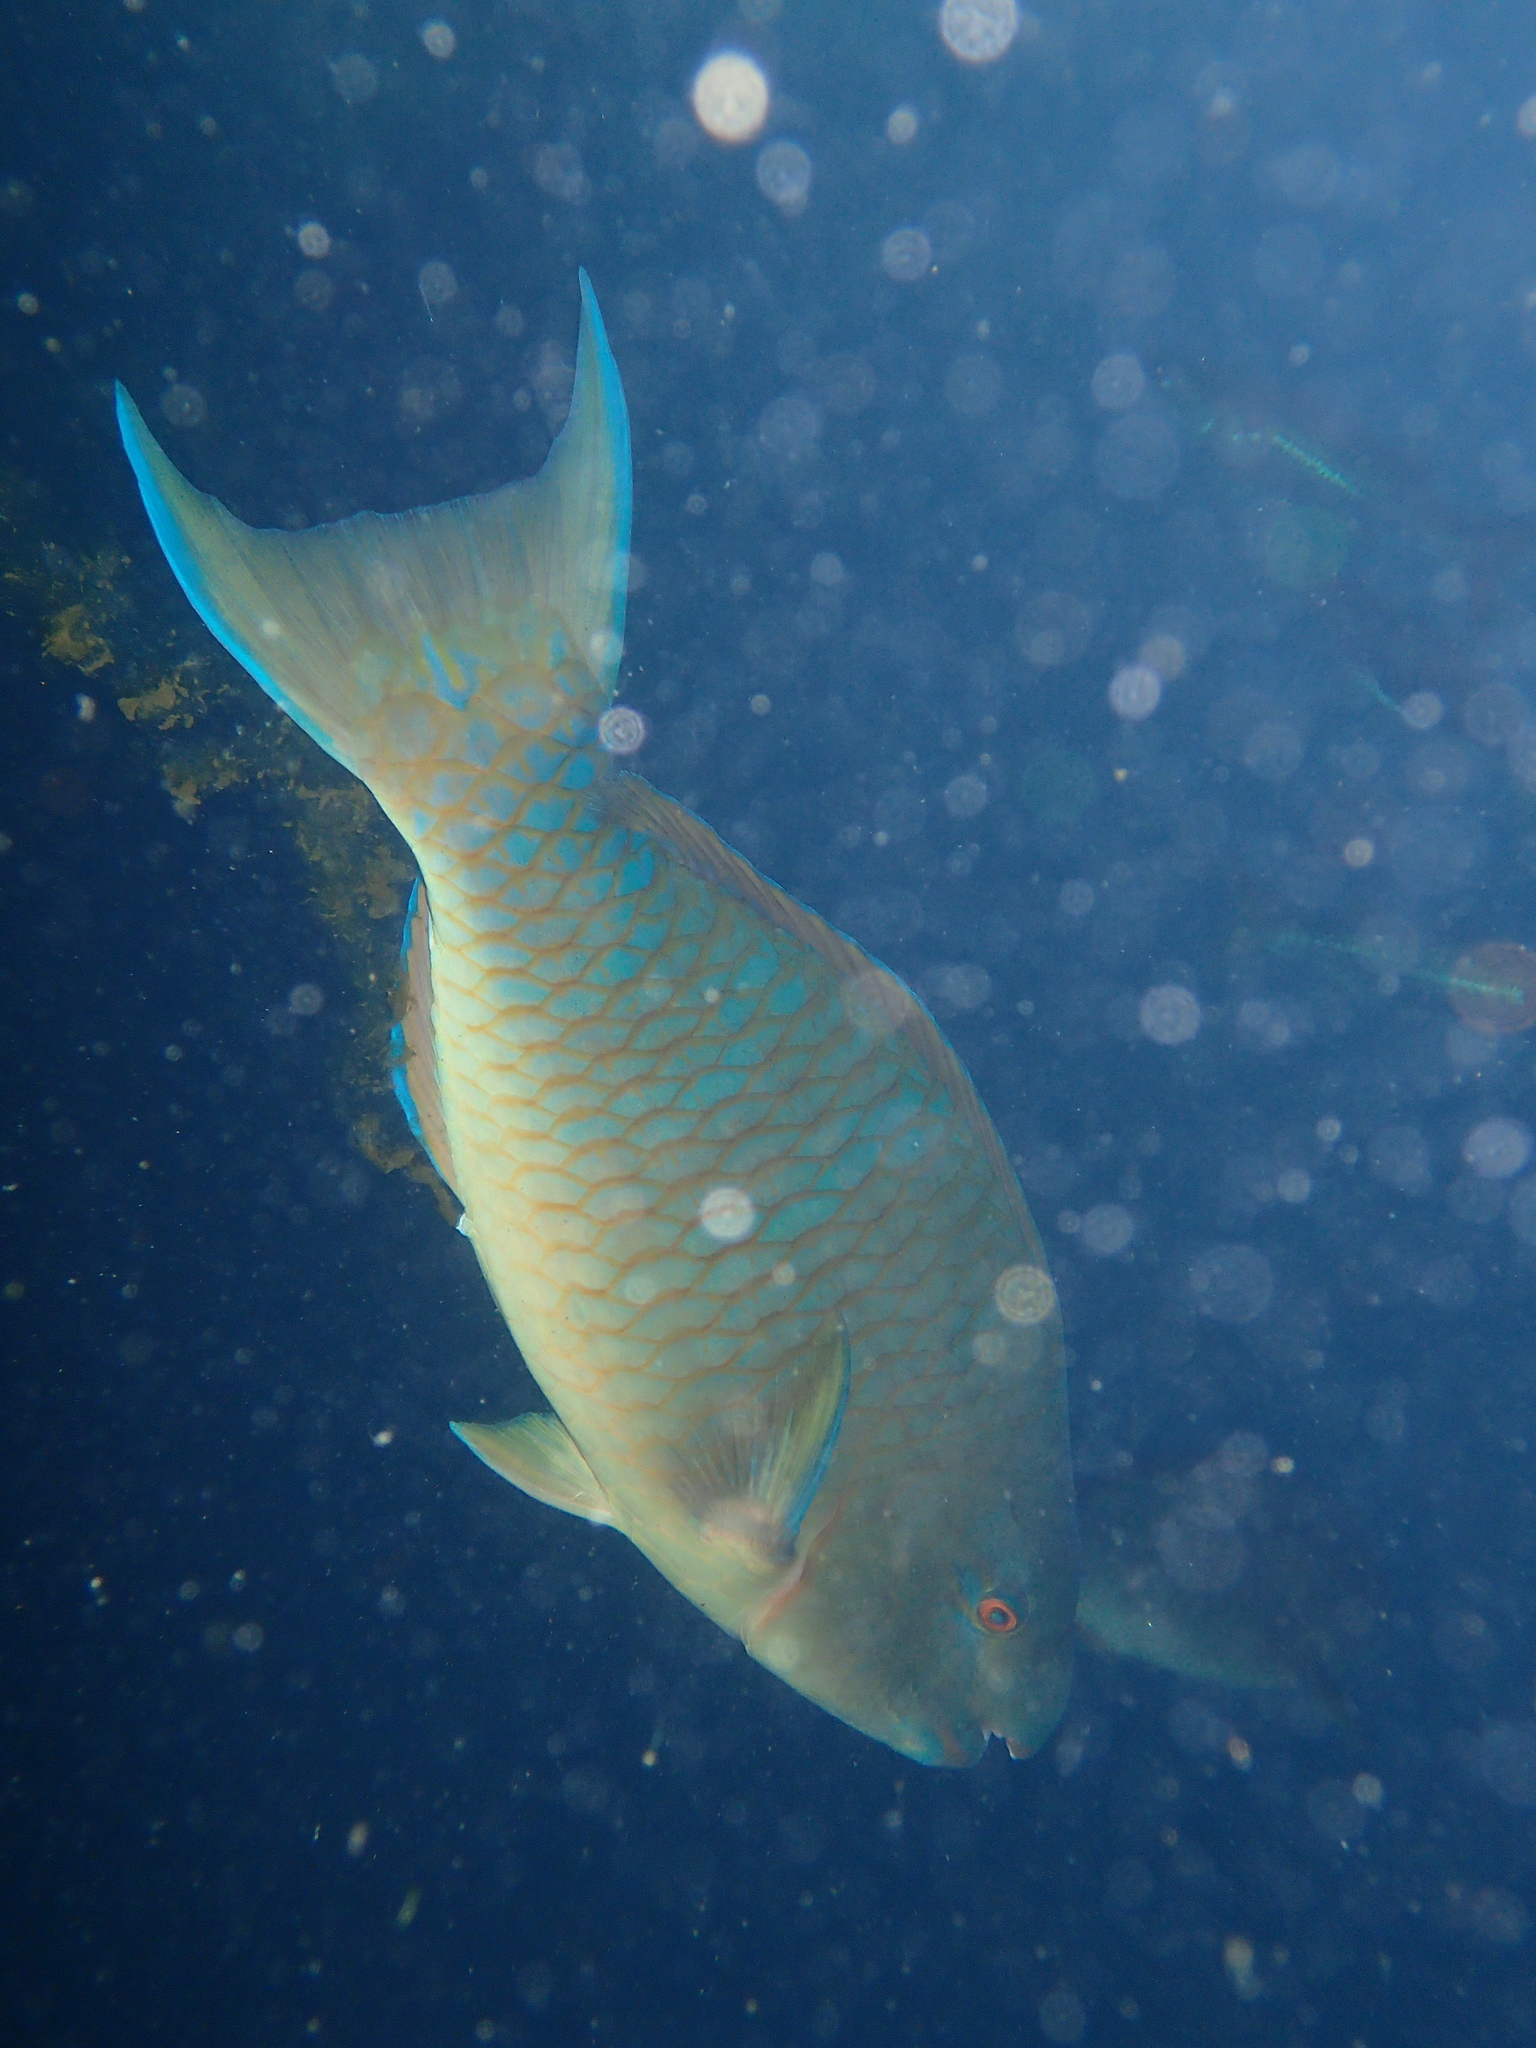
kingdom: Animalia
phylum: Chordata
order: Perciformes
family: Scaridae
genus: Scarus
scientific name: Scarus ghobban
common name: Blue-barred parrotfish
